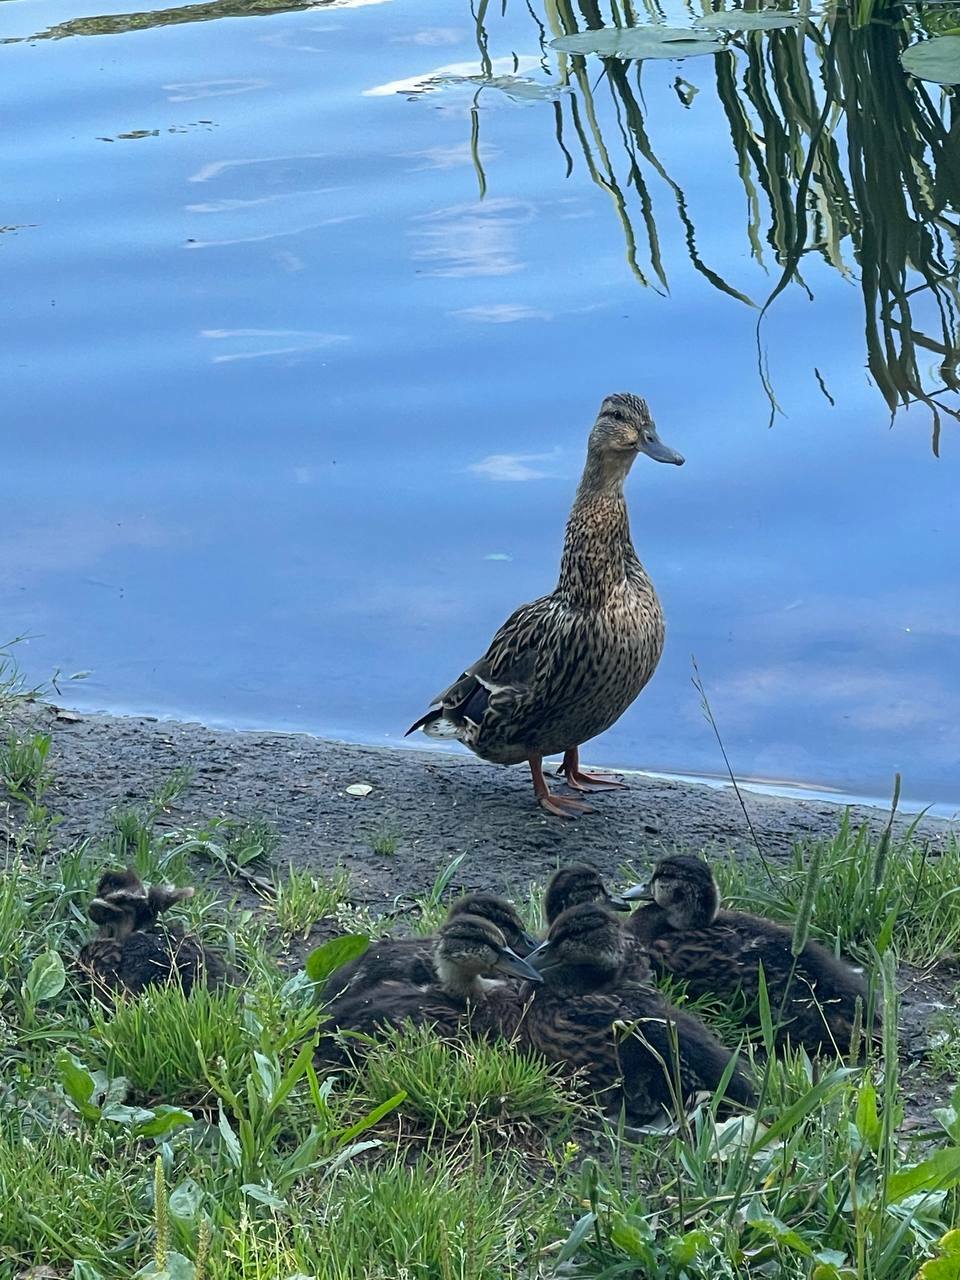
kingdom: Animalia
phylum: Chordata
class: Aves
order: Anseriformes
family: Anatidae
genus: Anas
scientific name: Anas platyrhynchos
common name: Mallard
